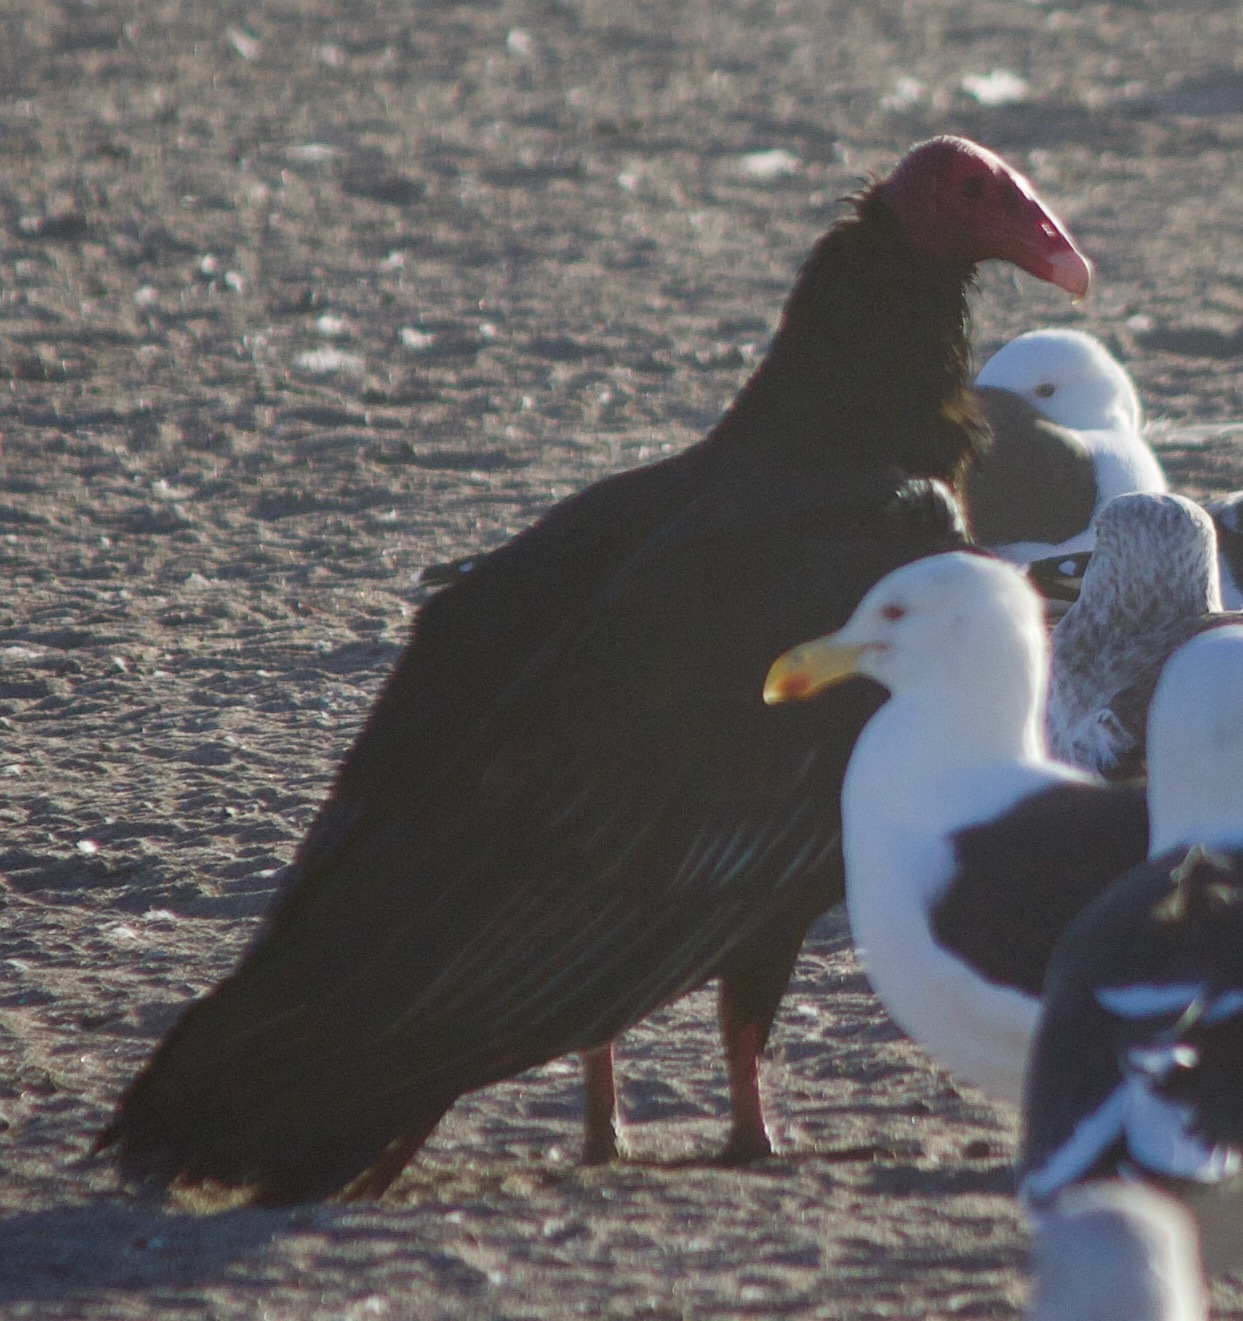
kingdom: Animalia
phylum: Chordata
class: Aves
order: Accipitriformes
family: Cathartidae
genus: Cathartes
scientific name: Cathartes aura
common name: Turkey vulture
